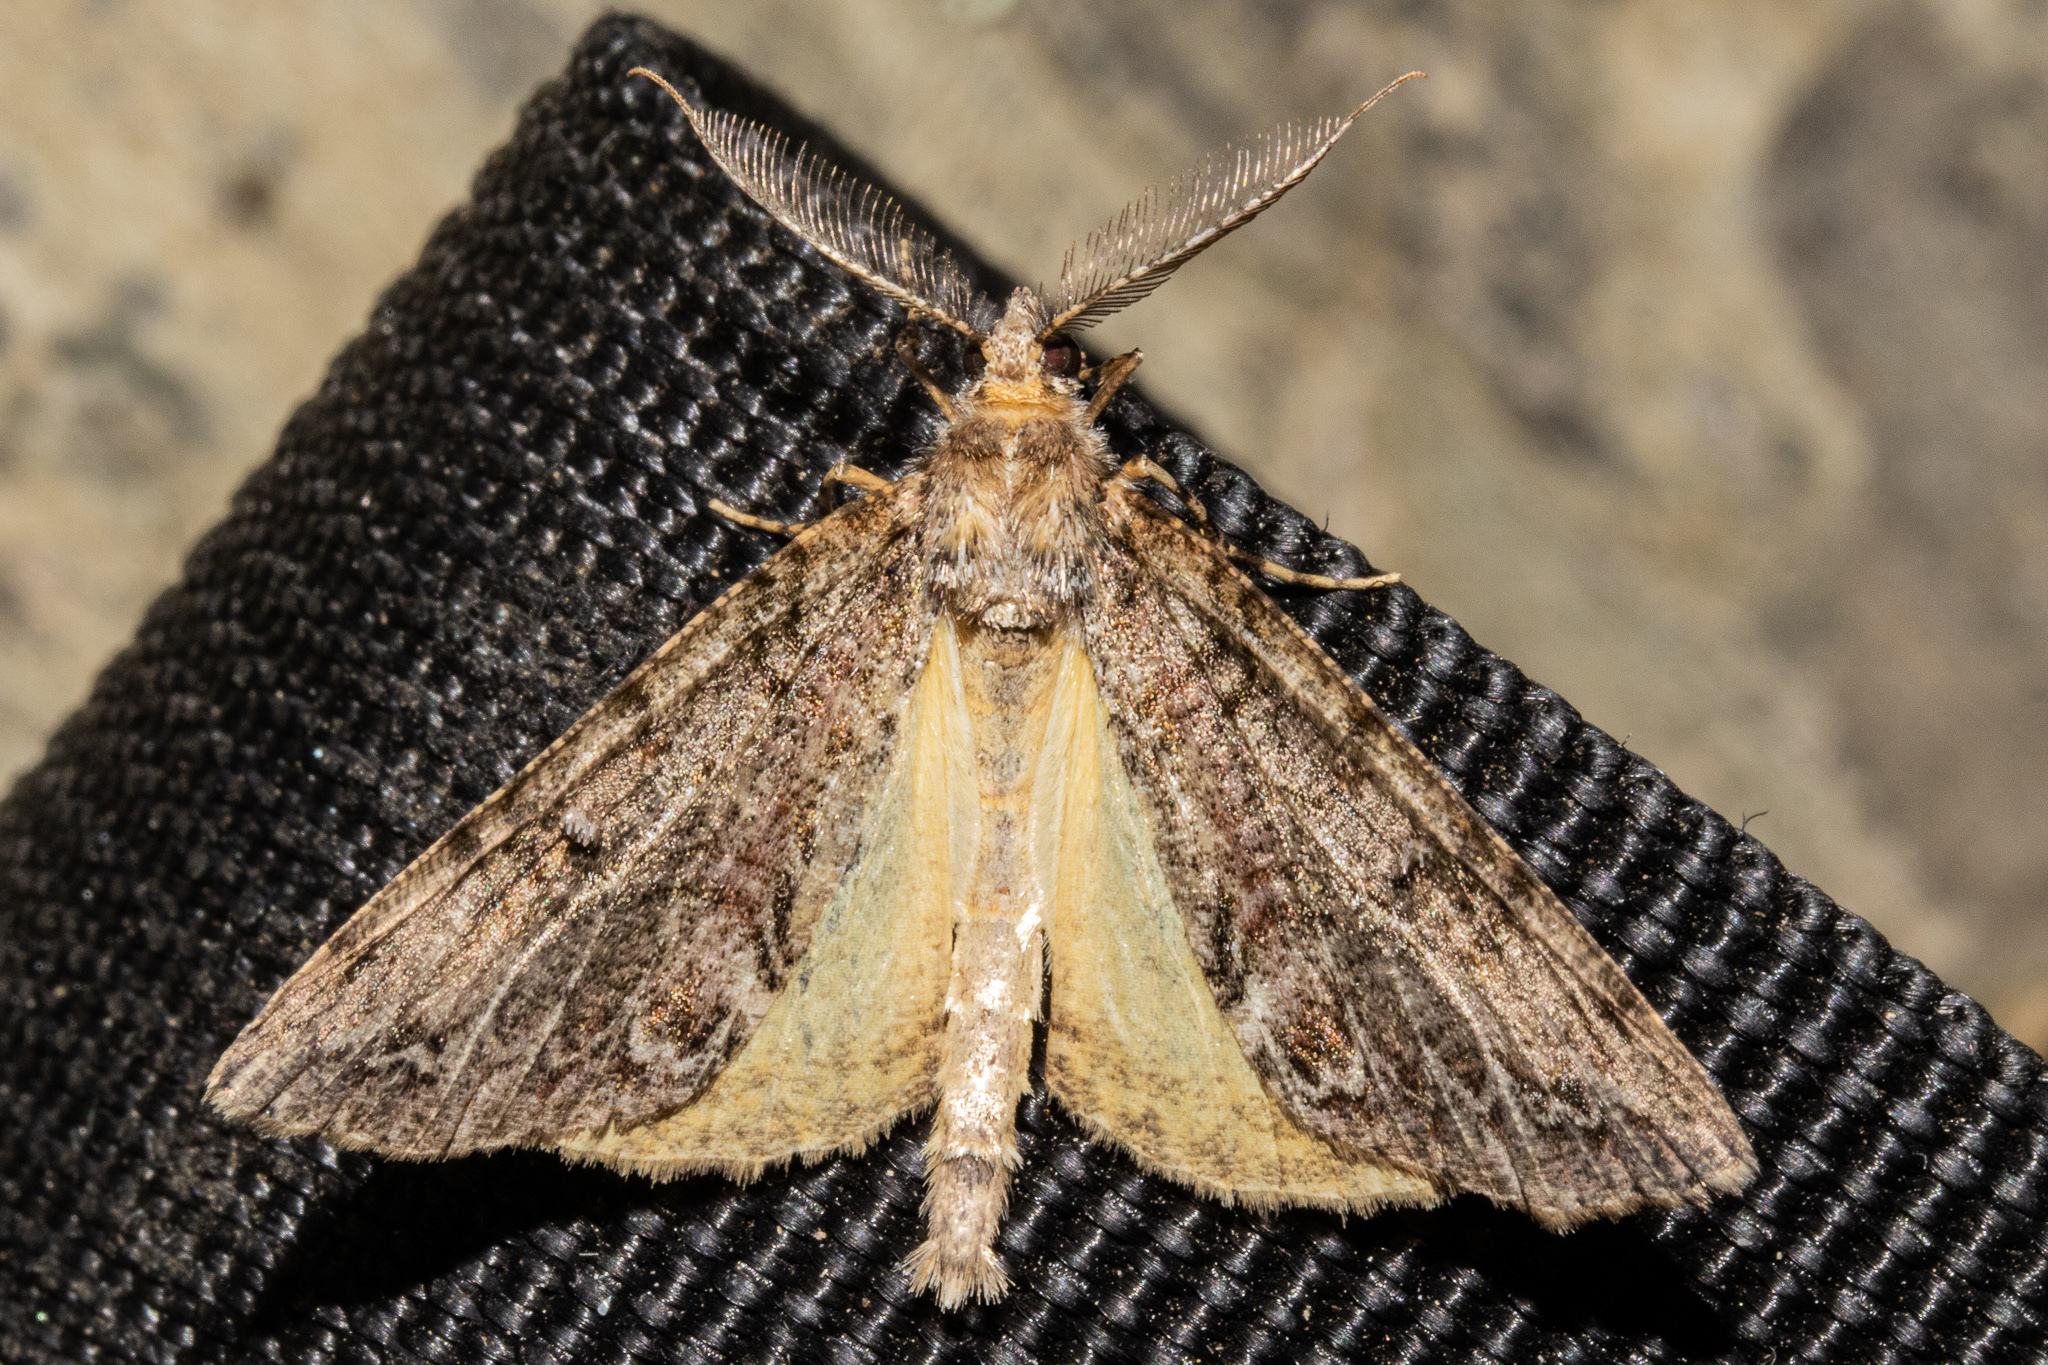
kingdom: Animalia
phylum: Arthropoda
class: Insecta
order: Lepidoptera
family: Geometridae
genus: Pseudocoremia
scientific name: Pseudocoremia suavis
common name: Common forest looper
